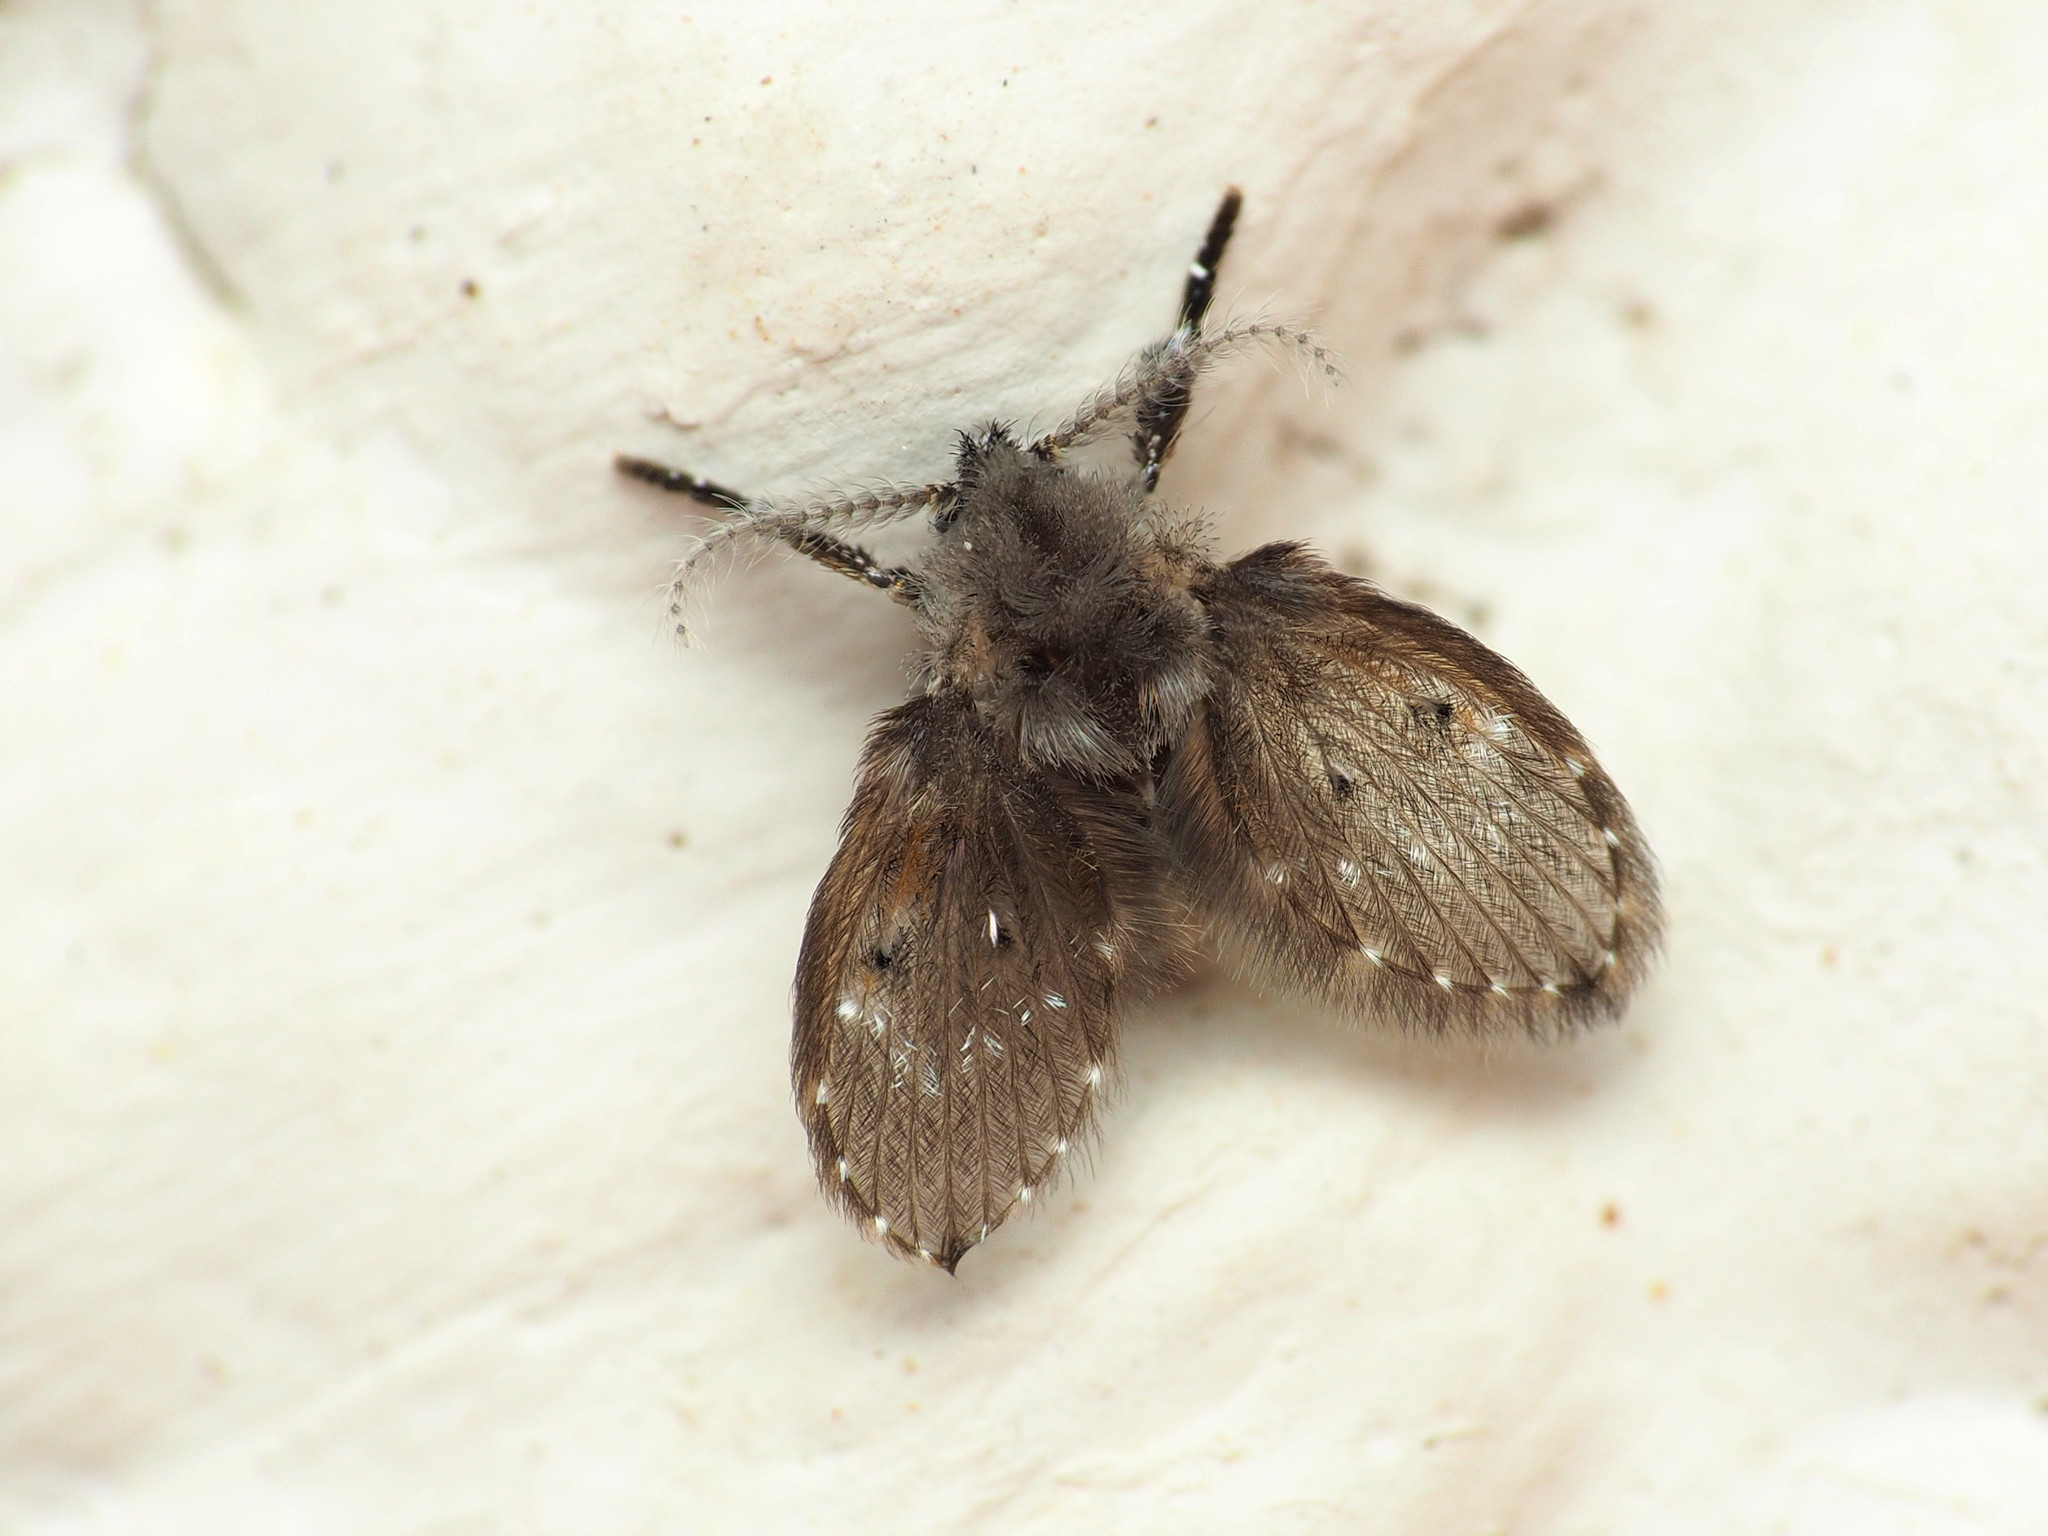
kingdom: Animalia
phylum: Arthropoda
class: Insecta
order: Diptera
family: Psychodidae
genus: Clogmia
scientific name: Clogmia albipunctatus
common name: White-spotted moth fly
